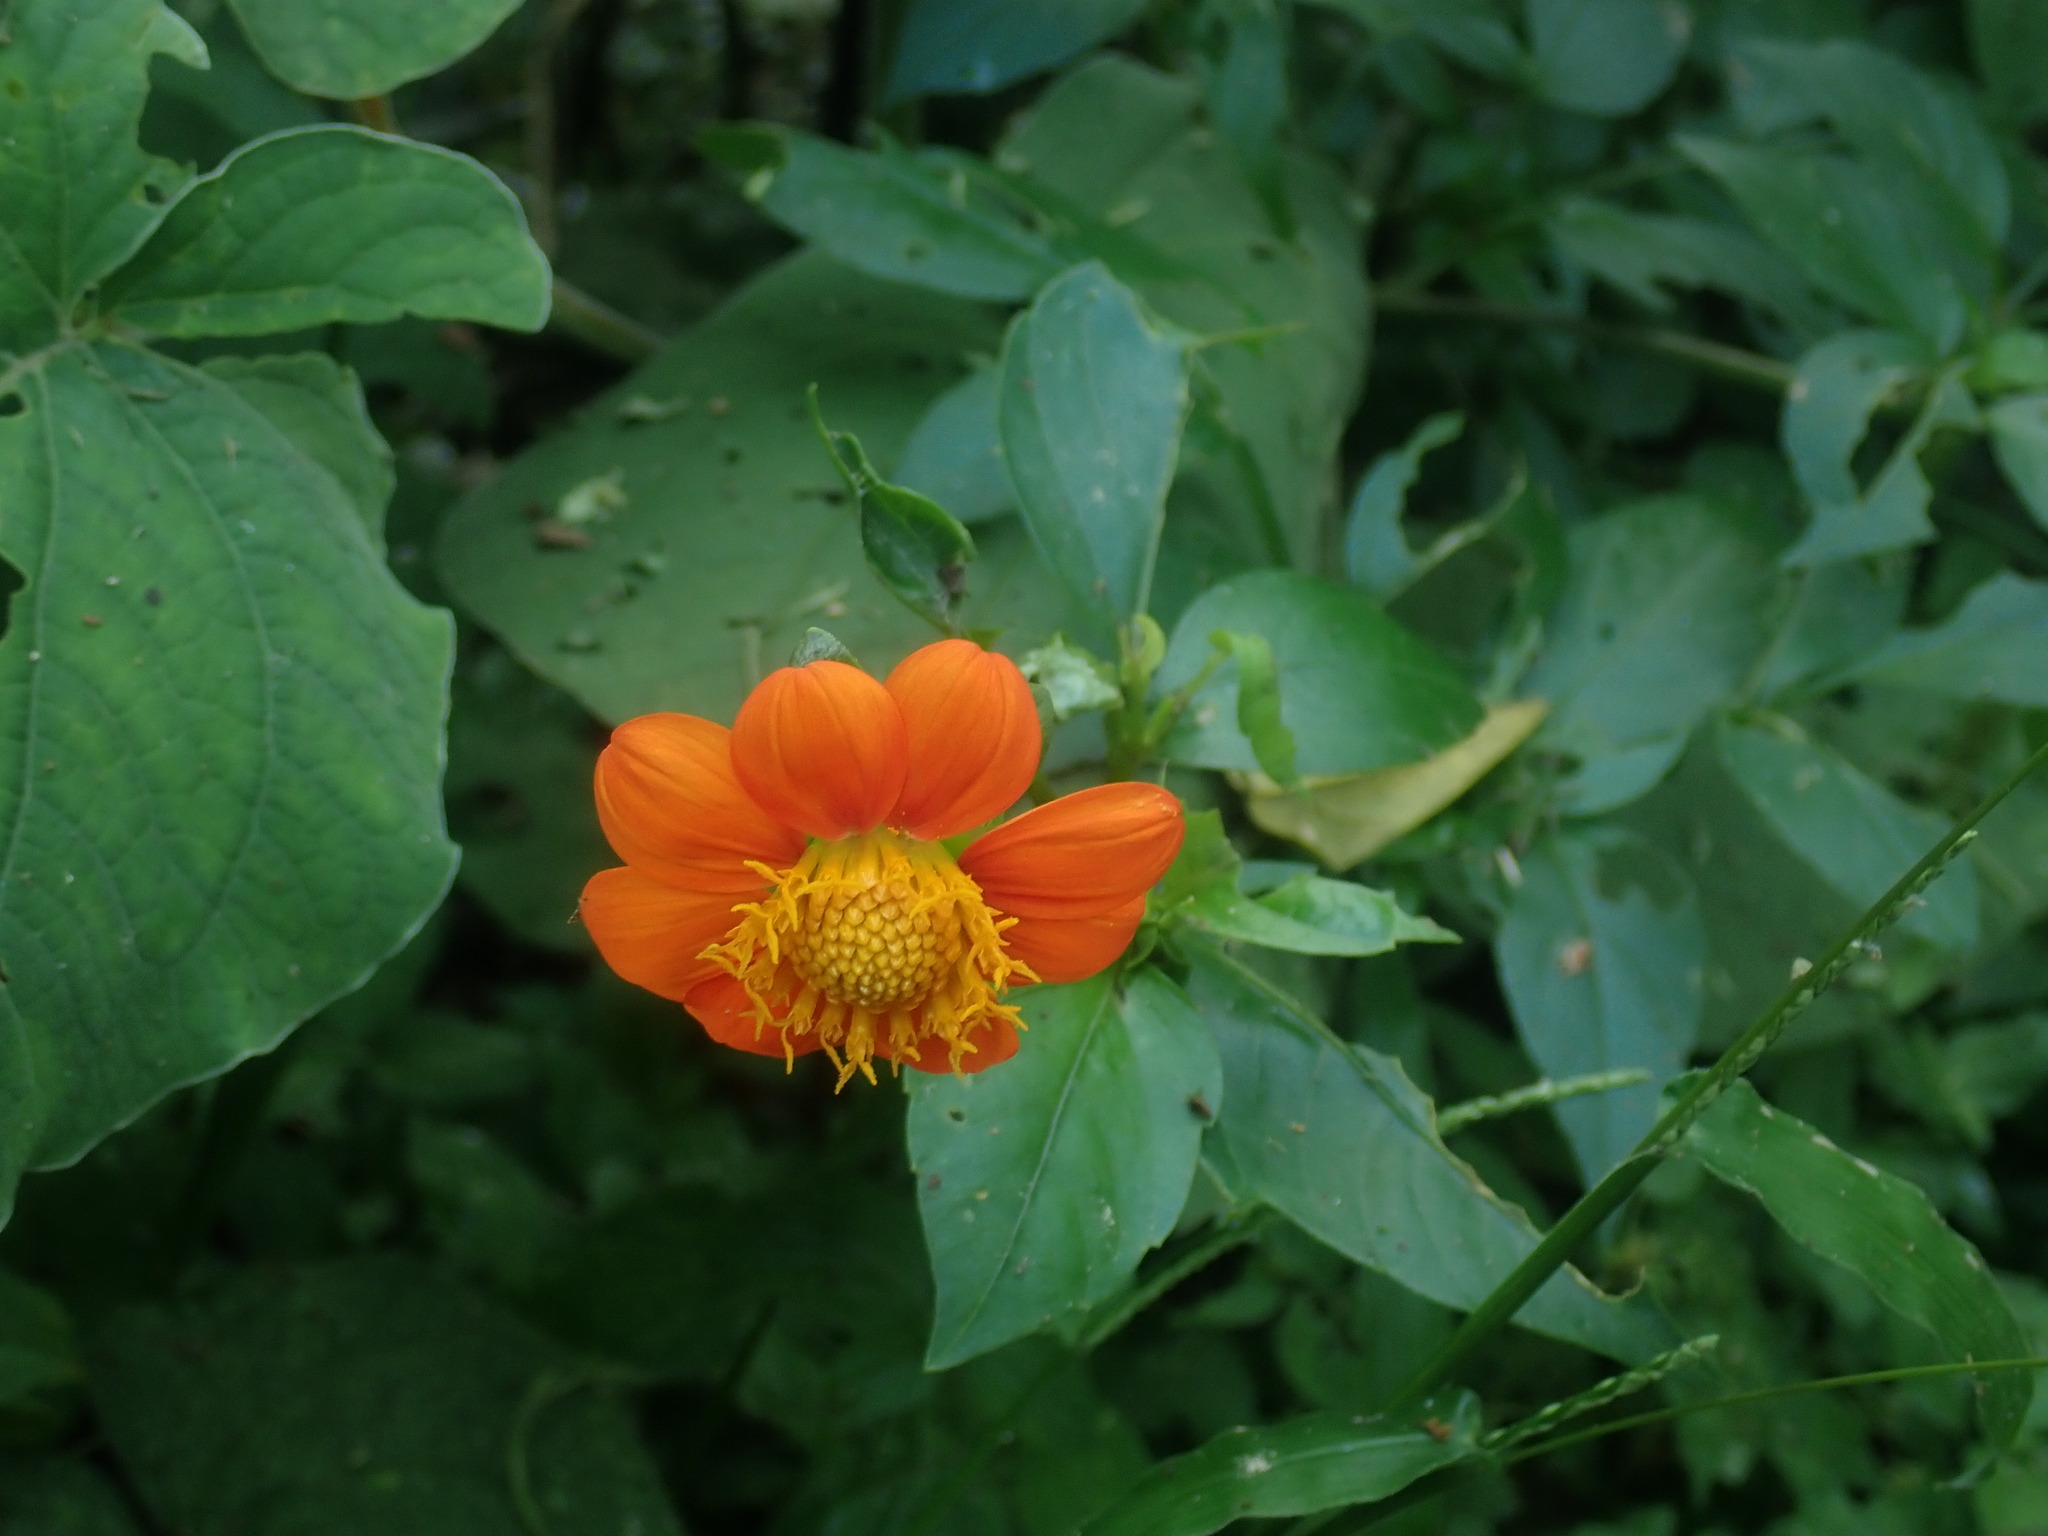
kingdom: Plantae
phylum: Tracheophyta
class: Magnoliopsida
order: Asterales
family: Asteraceae
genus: Dahlia
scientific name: Dahlia coccinea
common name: Red dahlia
